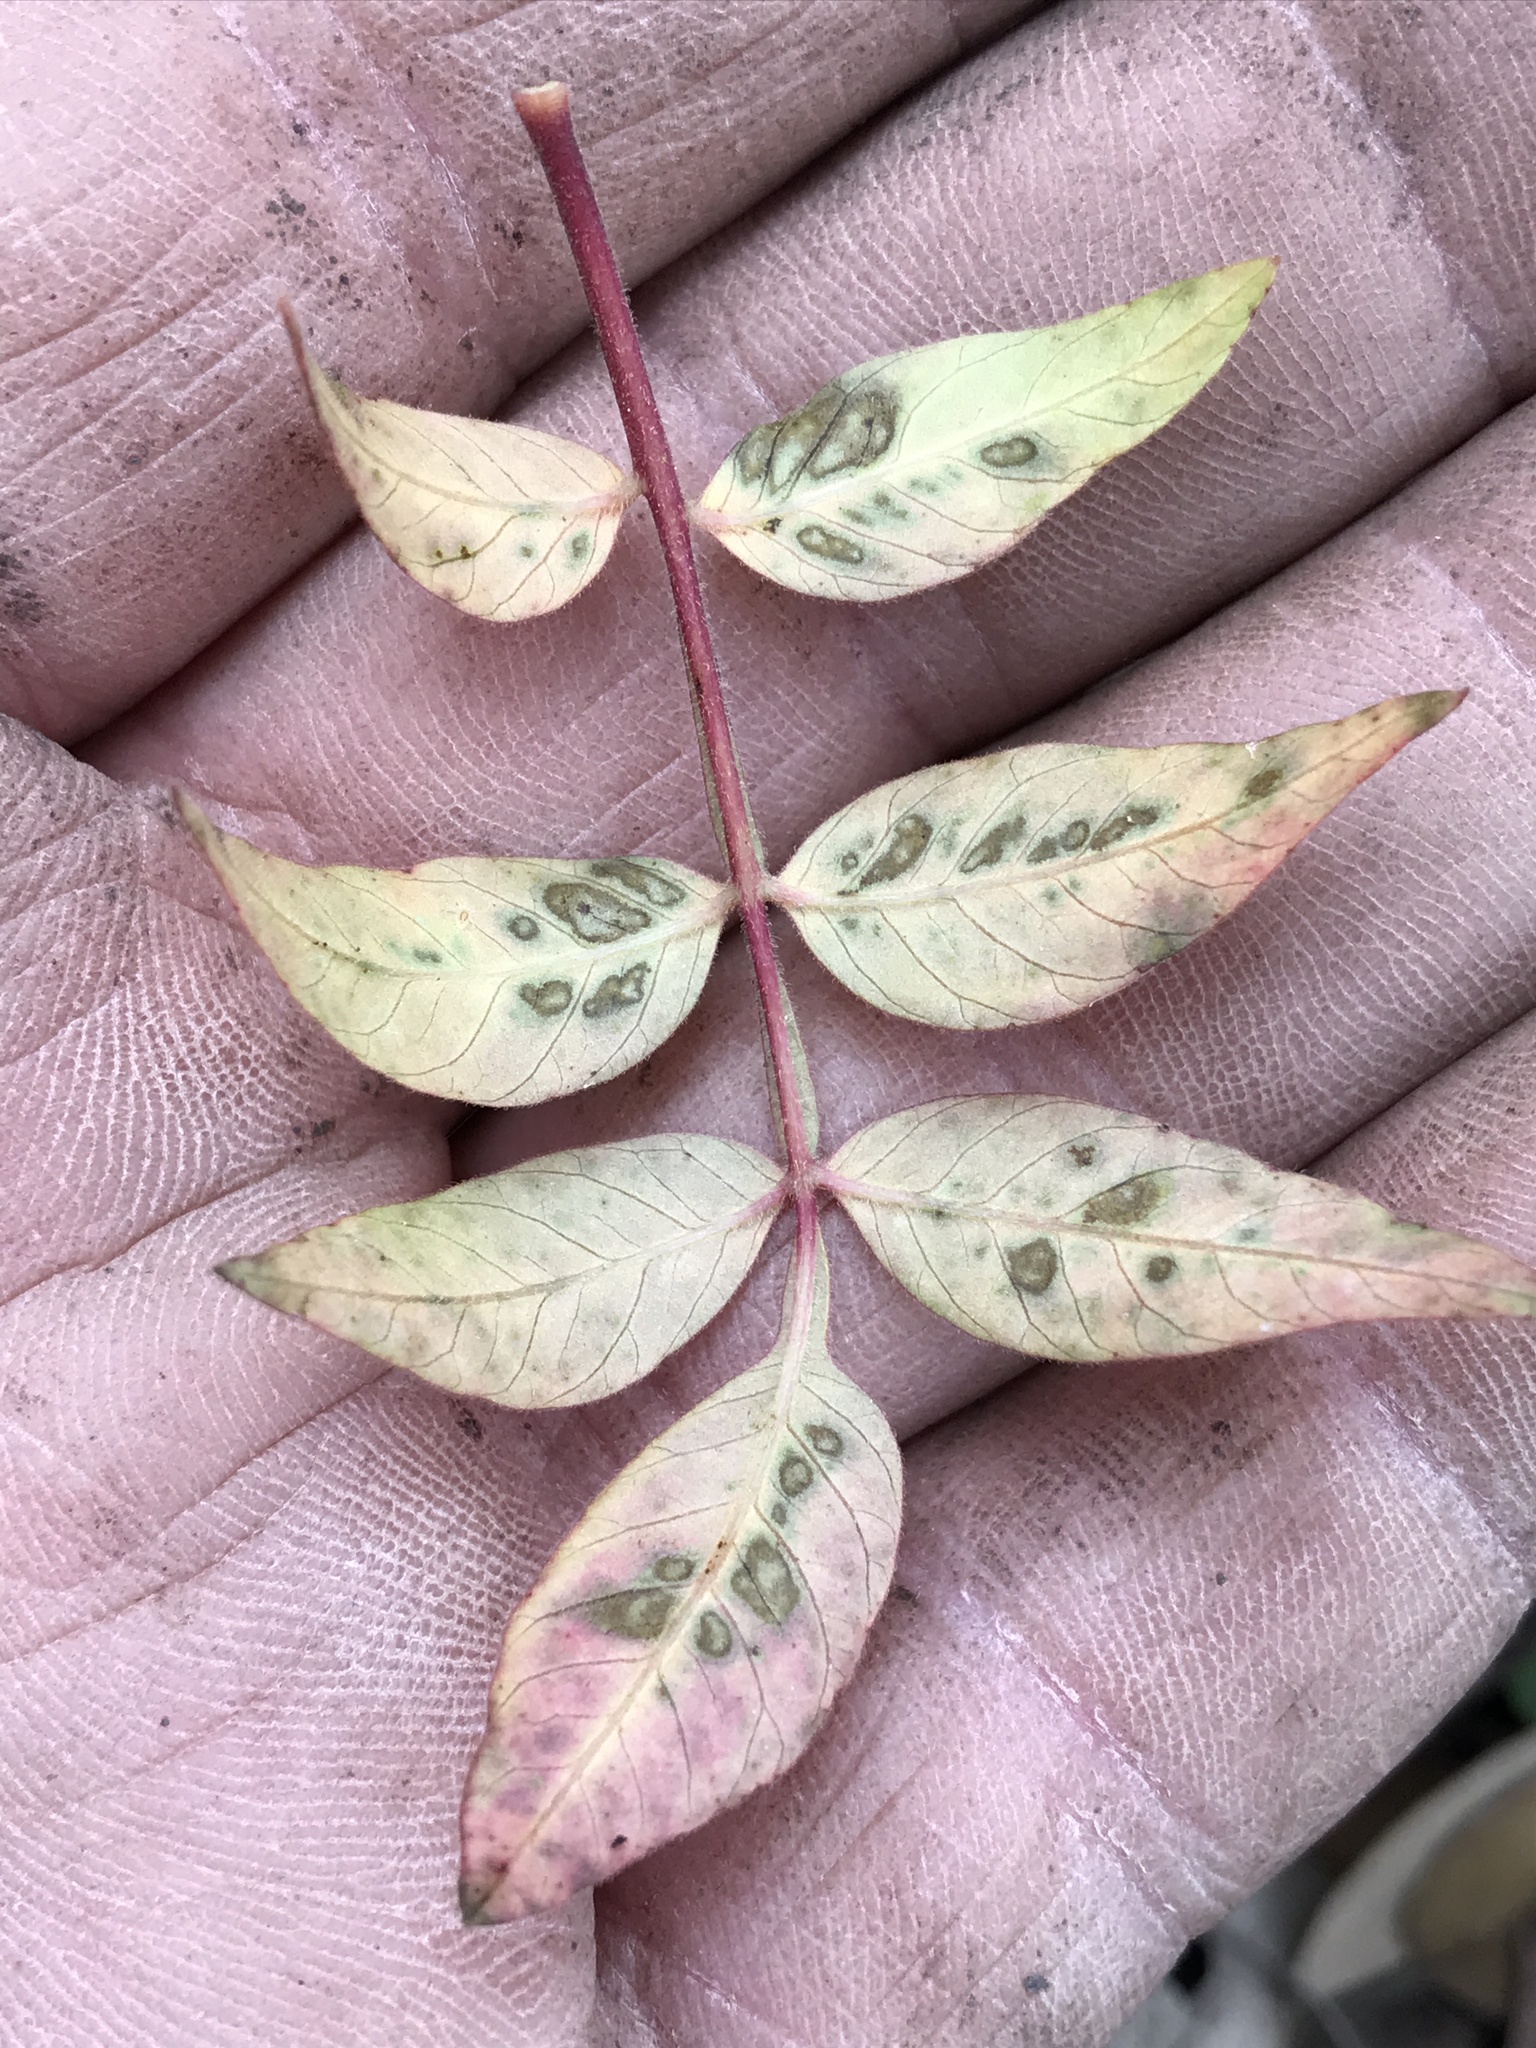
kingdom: Plantae
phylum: Tracheophyta
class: Magnoliopsida
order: Sapindales
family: Anacardiaceae
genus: Rhus
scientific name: Rhus lanceolata
